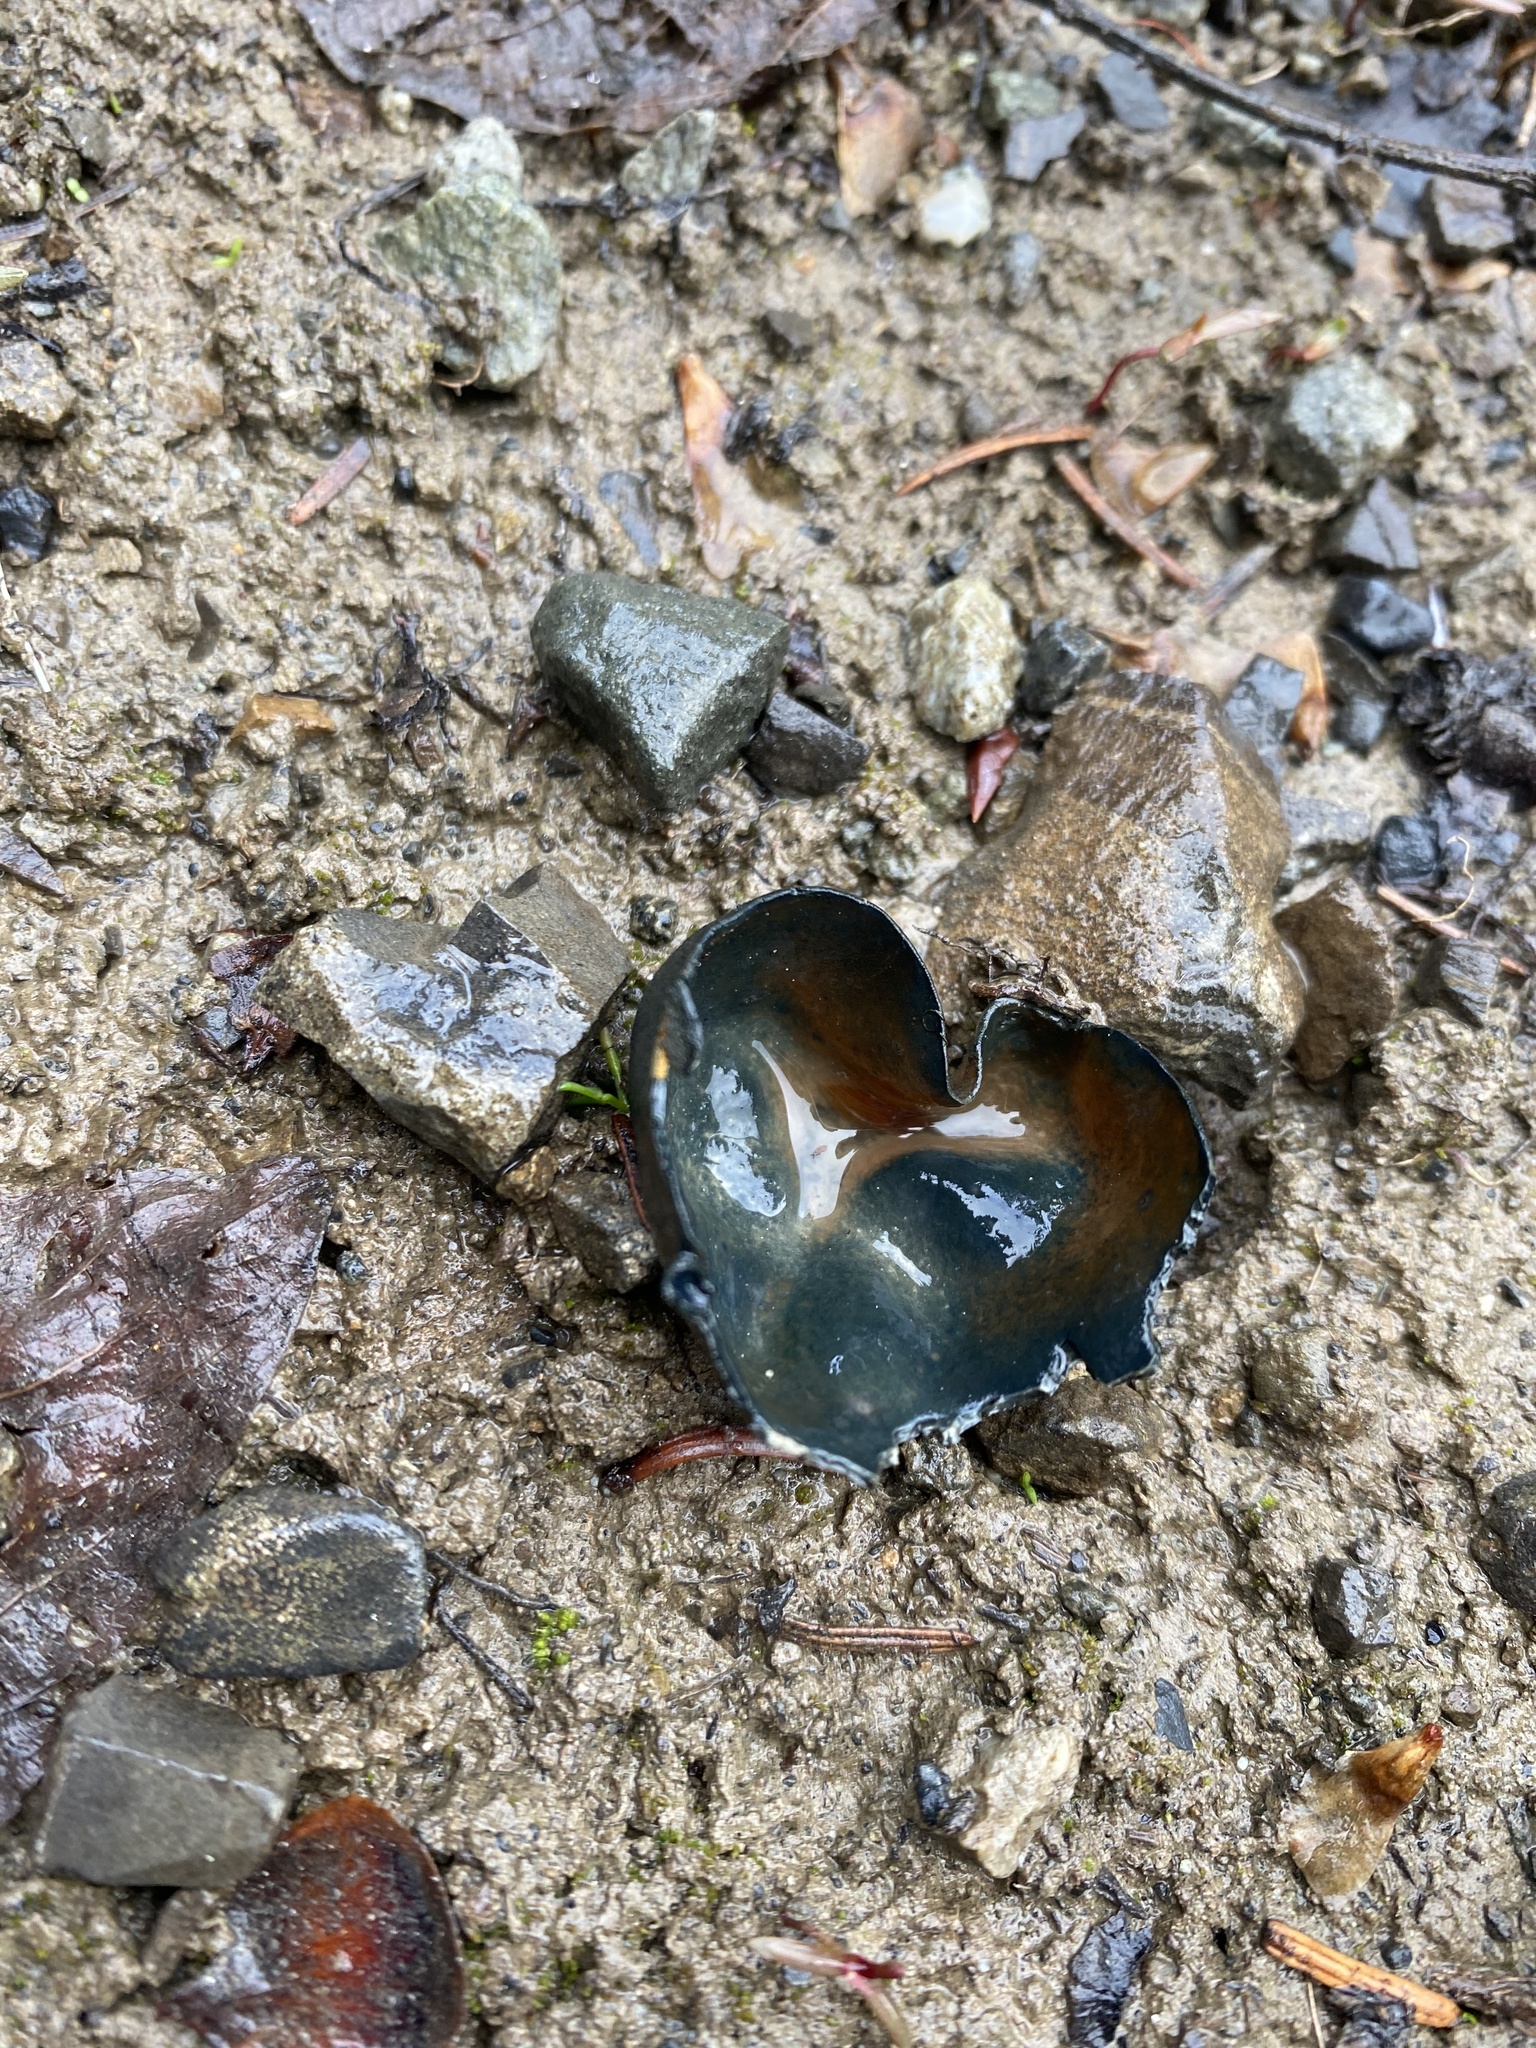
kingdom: Fungi
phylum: Ascomycota
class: Pezizomycetes
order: Pezizales
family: Caloscyphaceae
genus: Caloscypha
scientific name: Caloscypha fulgens
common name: Golden cup
